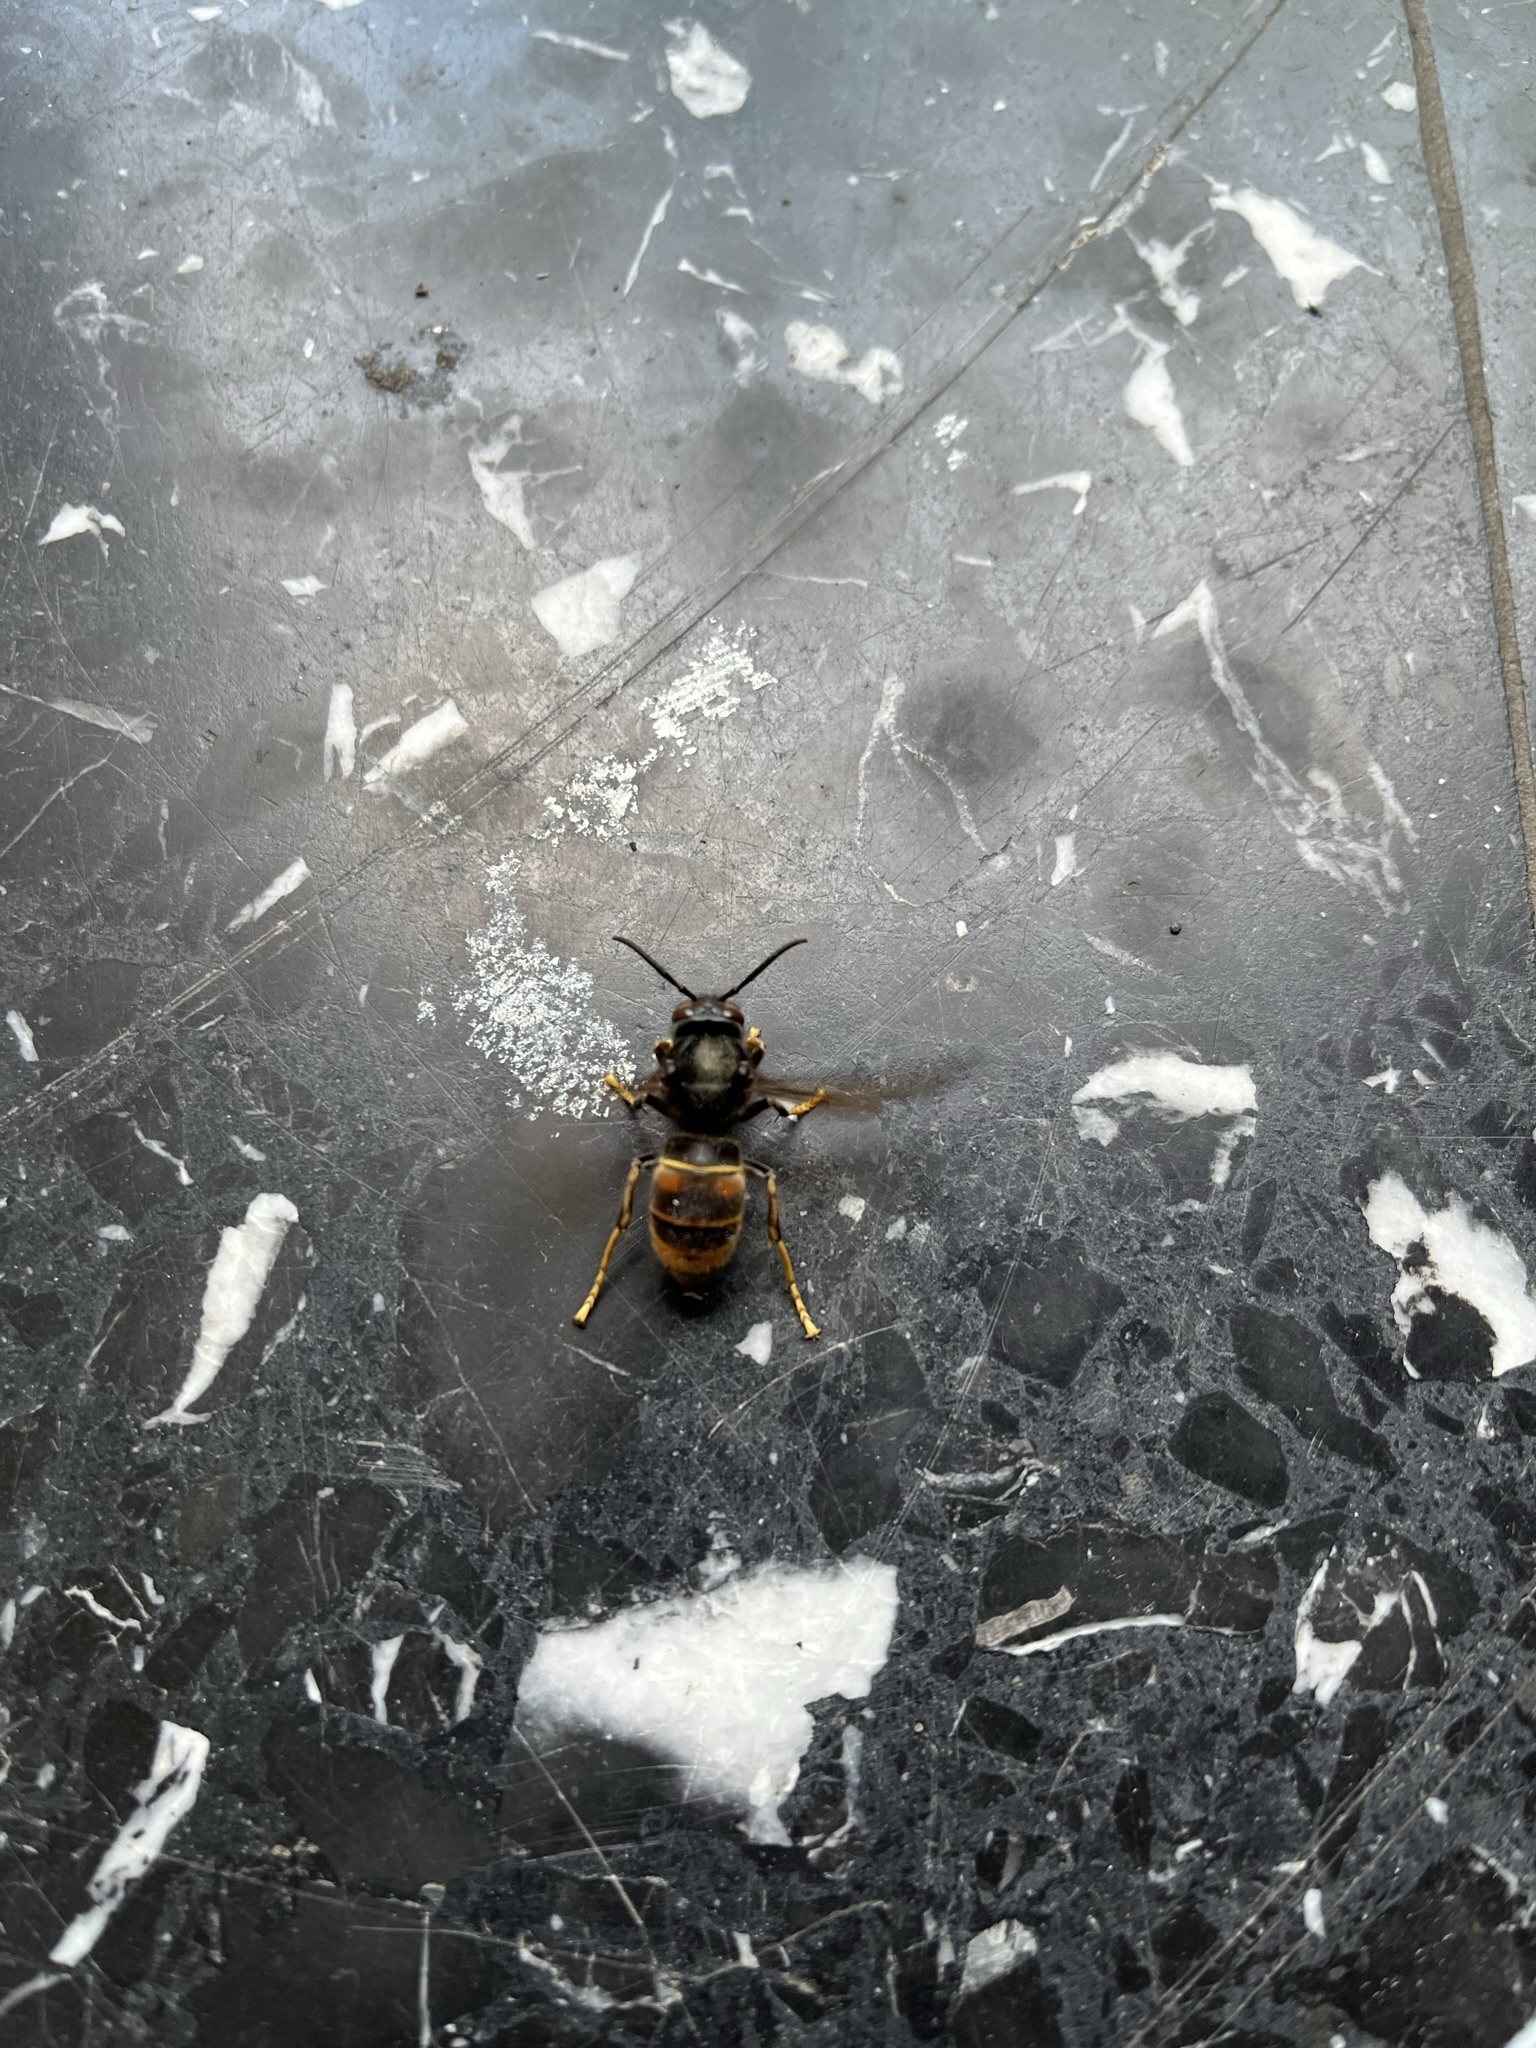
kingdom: Animalia
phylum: Arthropoda
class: Insecta
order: Hymenoptera
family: Vespidae
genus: Vespa
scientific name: Vespa velutina
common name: Asian hornet
